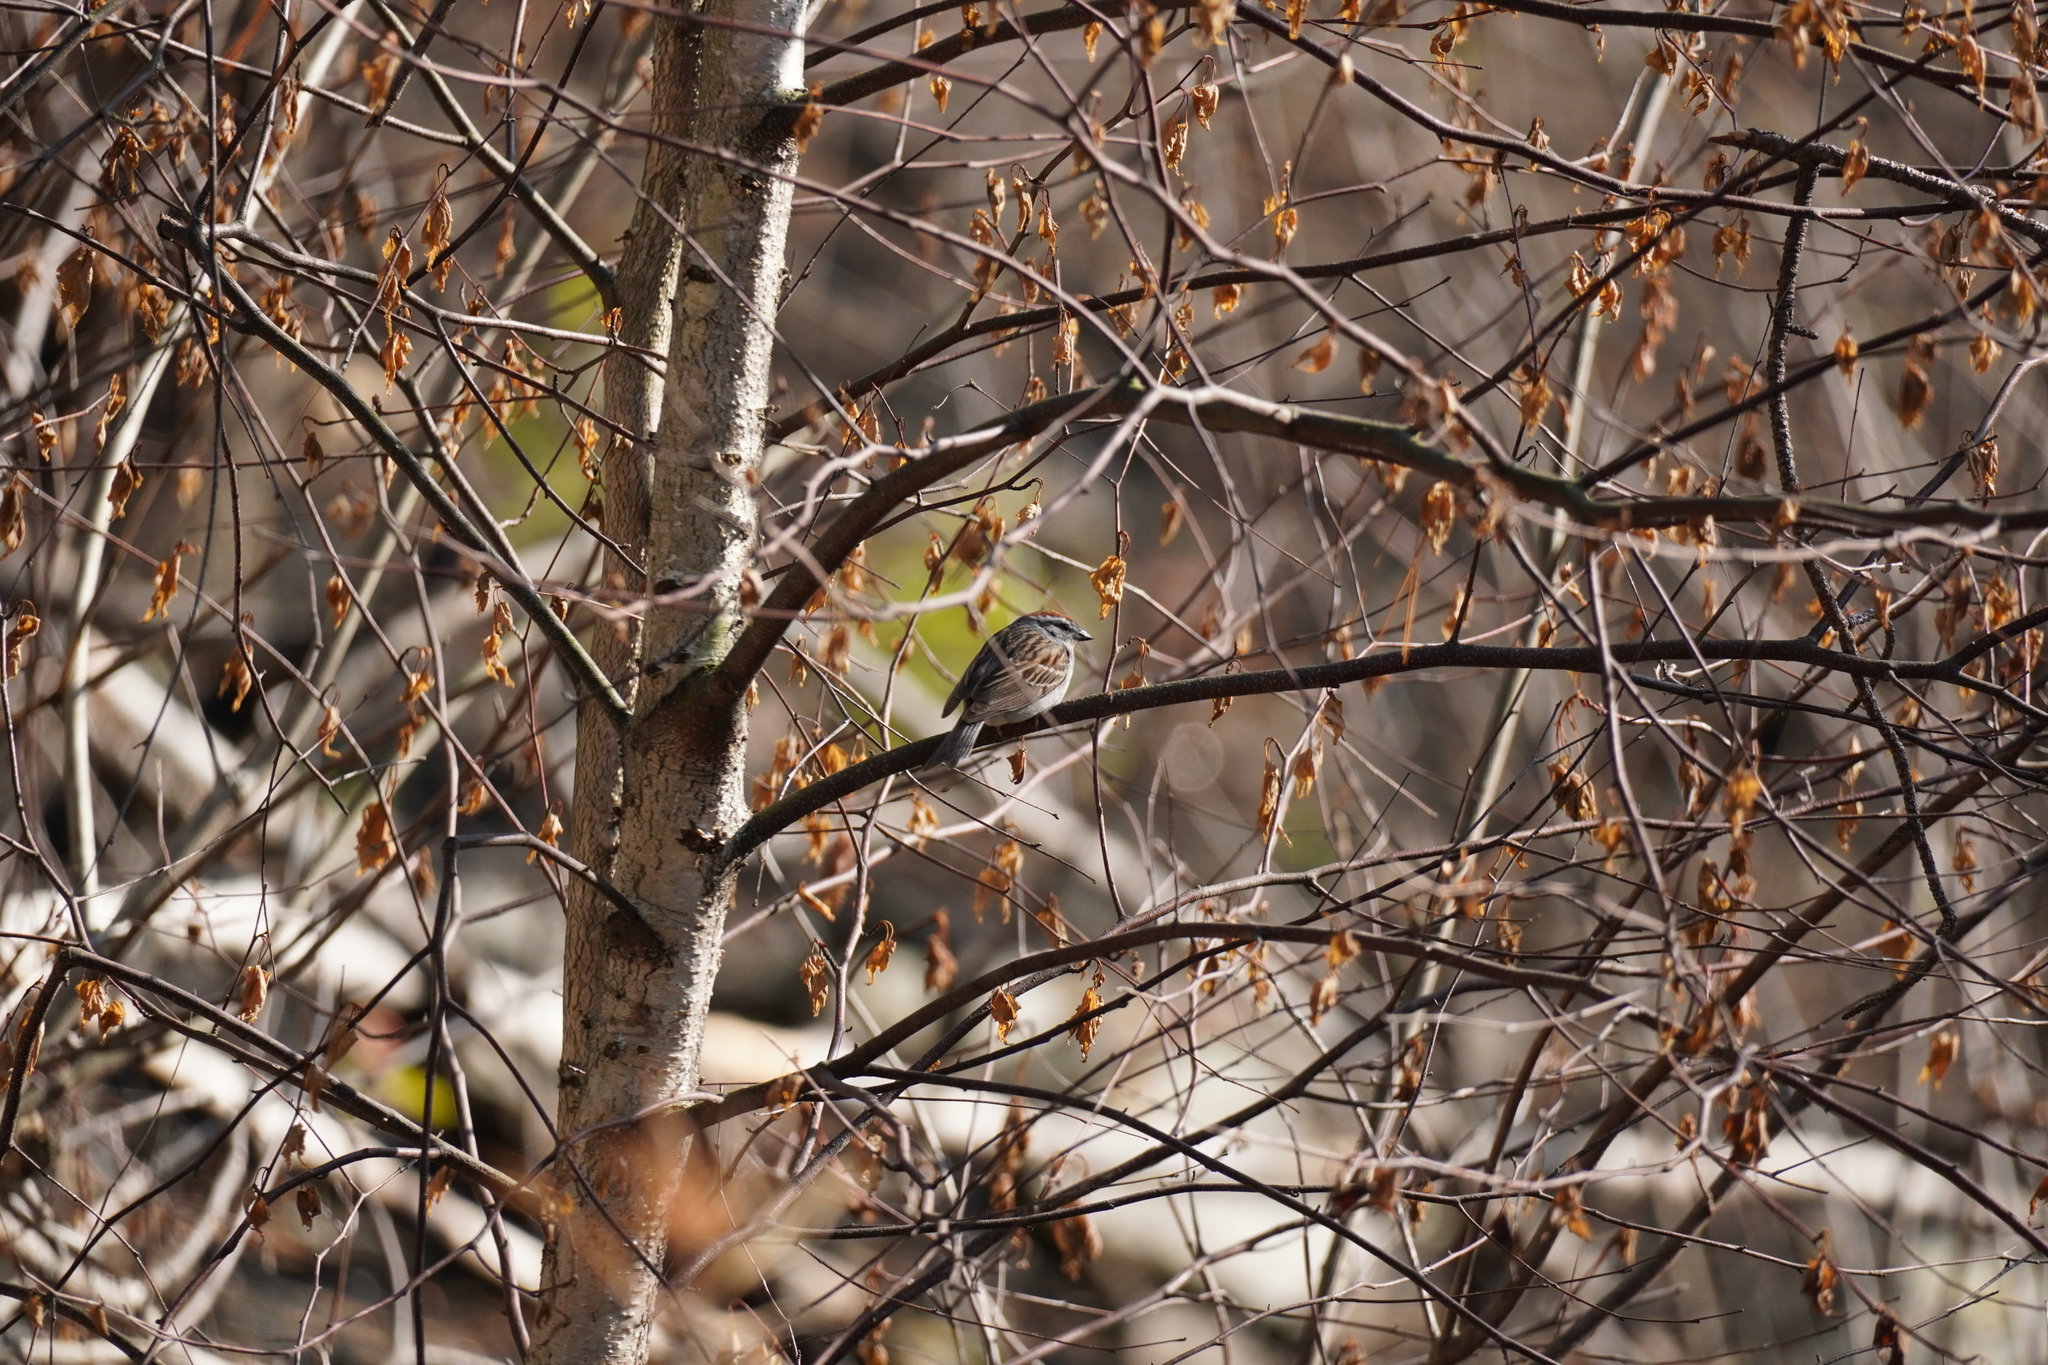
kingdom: Animalia
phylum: Chordata
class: Aves
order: Passeriformes
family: Passerellidae
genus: Spizella
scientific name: Spizella passerina
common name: Chipping sparrow
